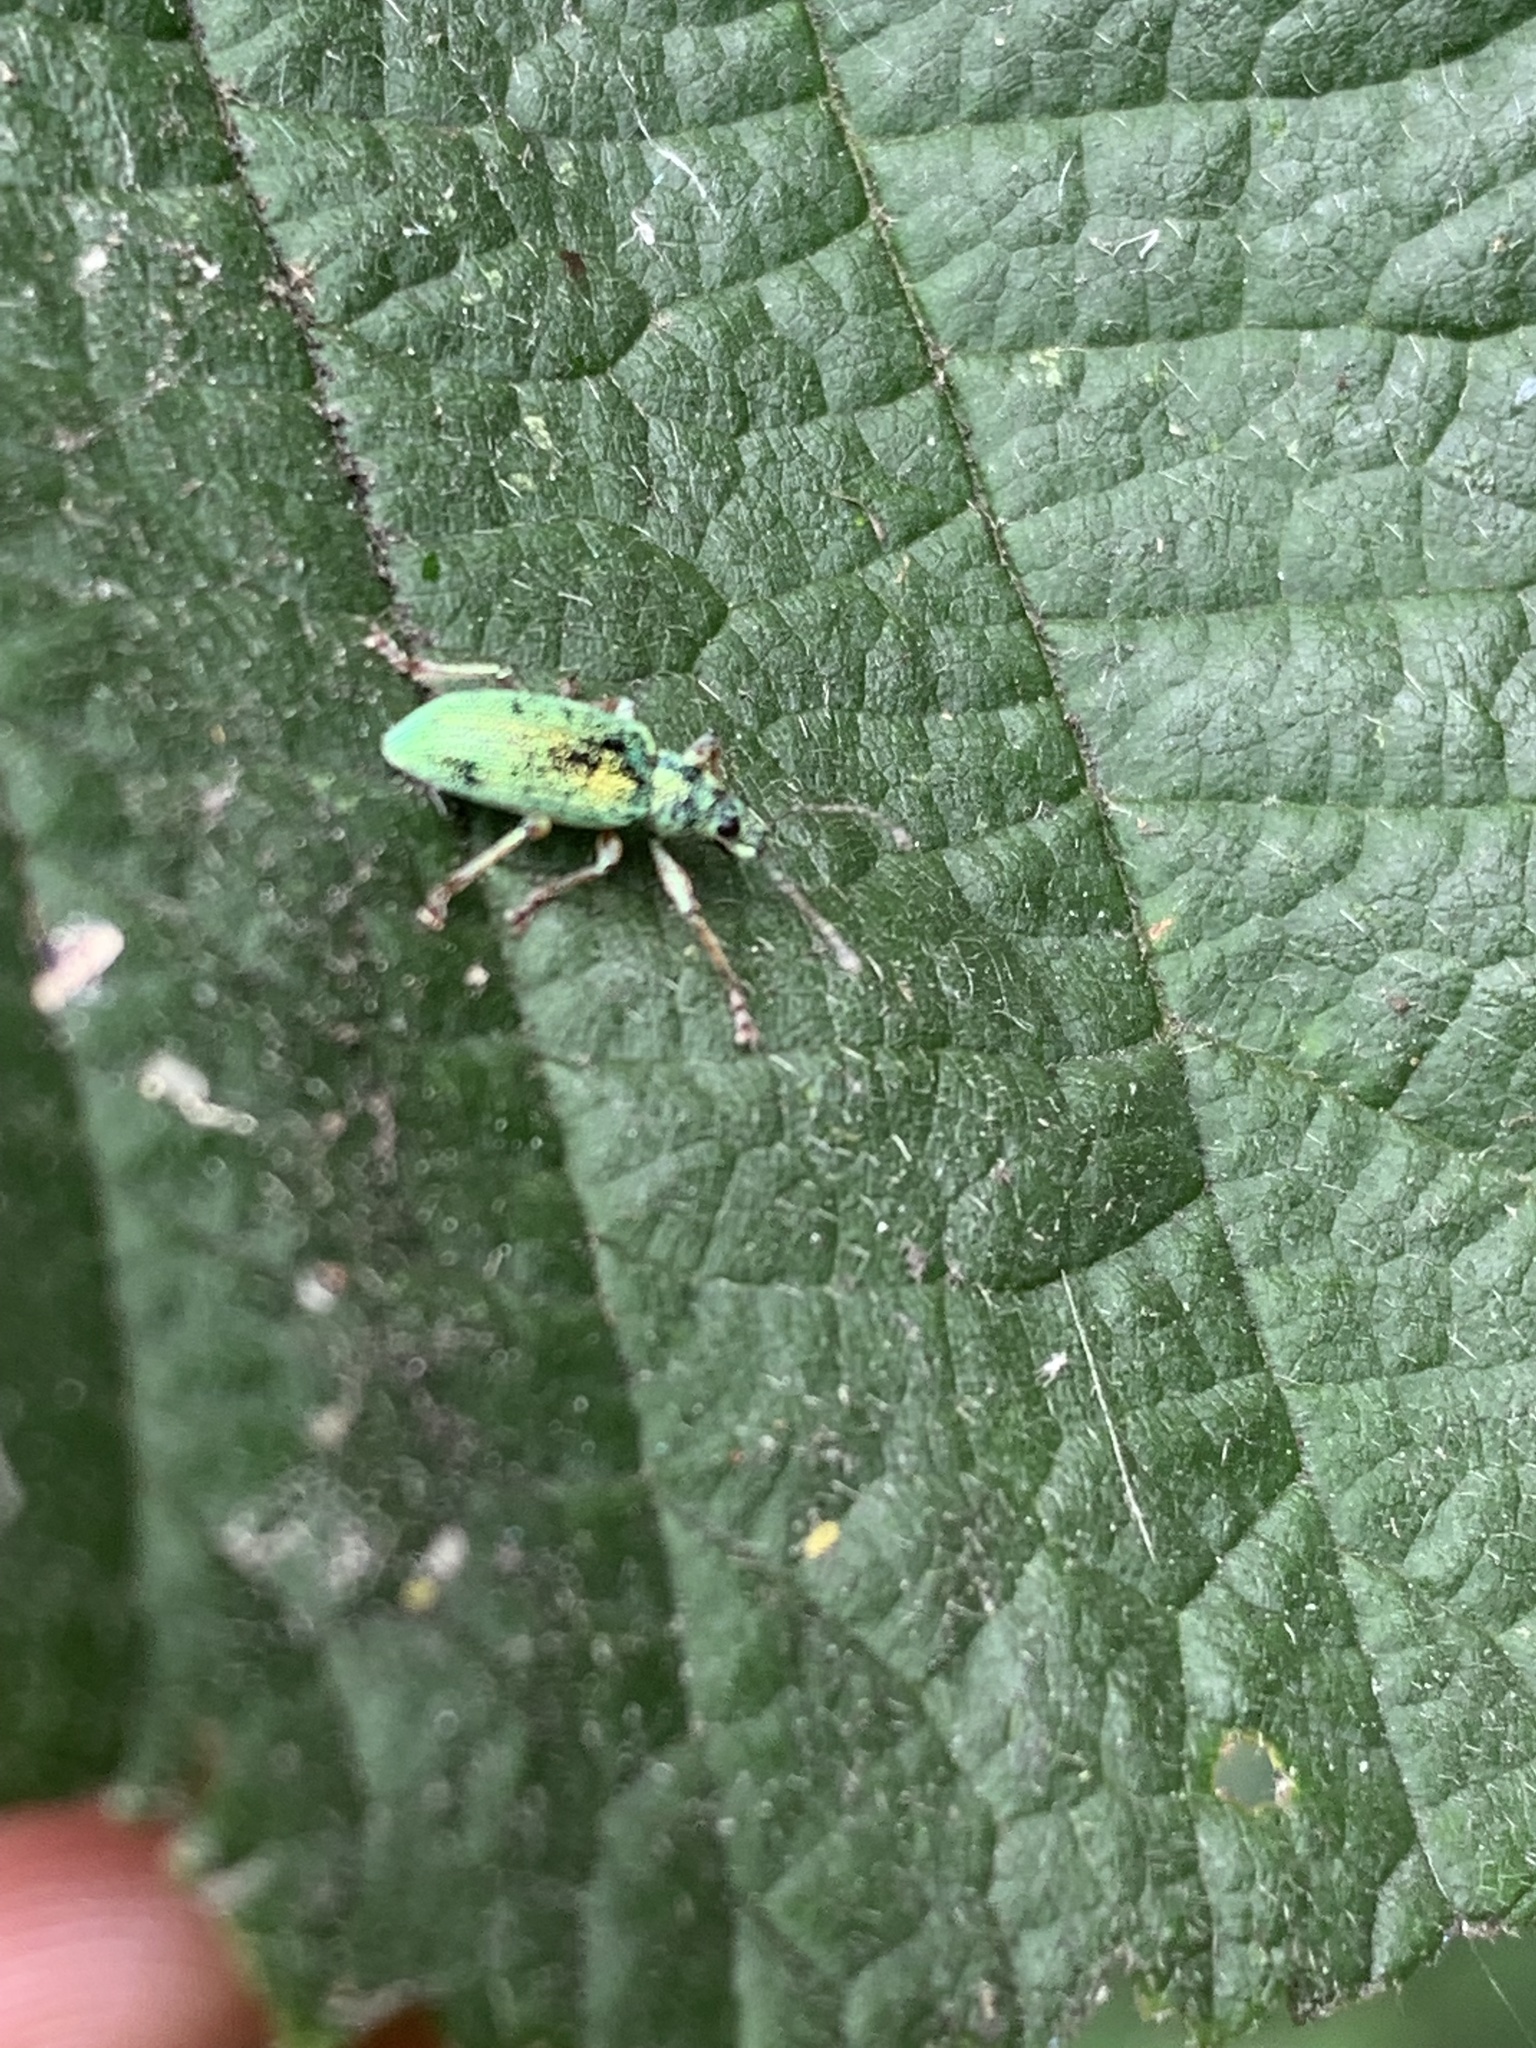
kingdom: Animalia
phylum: Arthropoda
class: Insecta
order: Coleoptera
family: Curculionidae
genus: Polydrusus
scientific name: Polydrusus formosus
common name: Weevil
